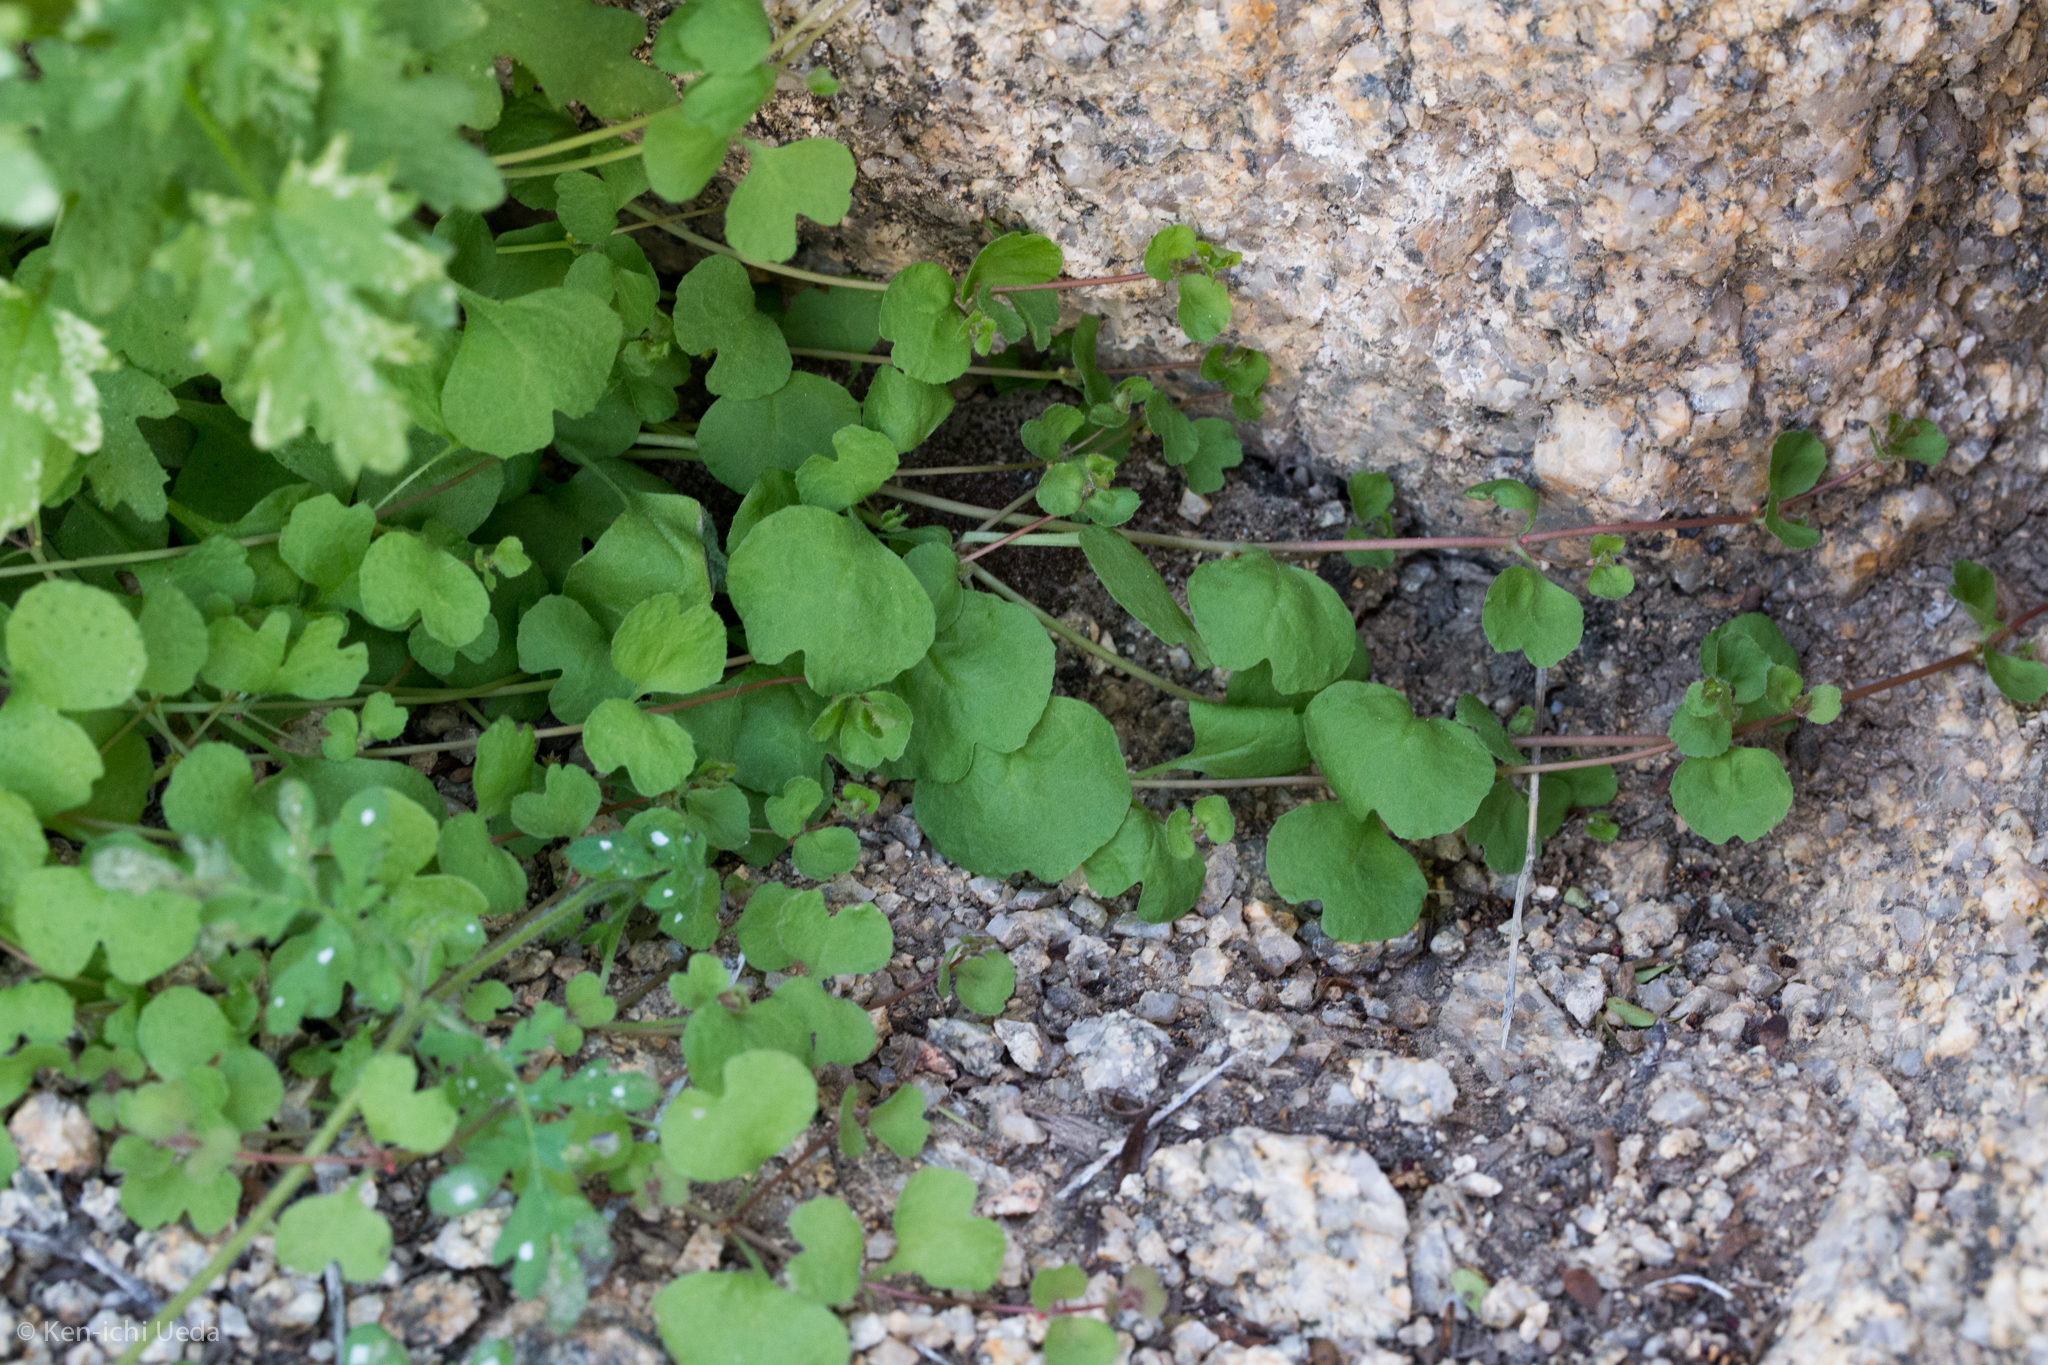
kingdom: Plantae
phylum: Tracheophyta
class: Magnoliopsida
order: Caryophyllales
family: Polygonaceae
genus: Pterostegia
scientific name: Pterostegia drymarioides
